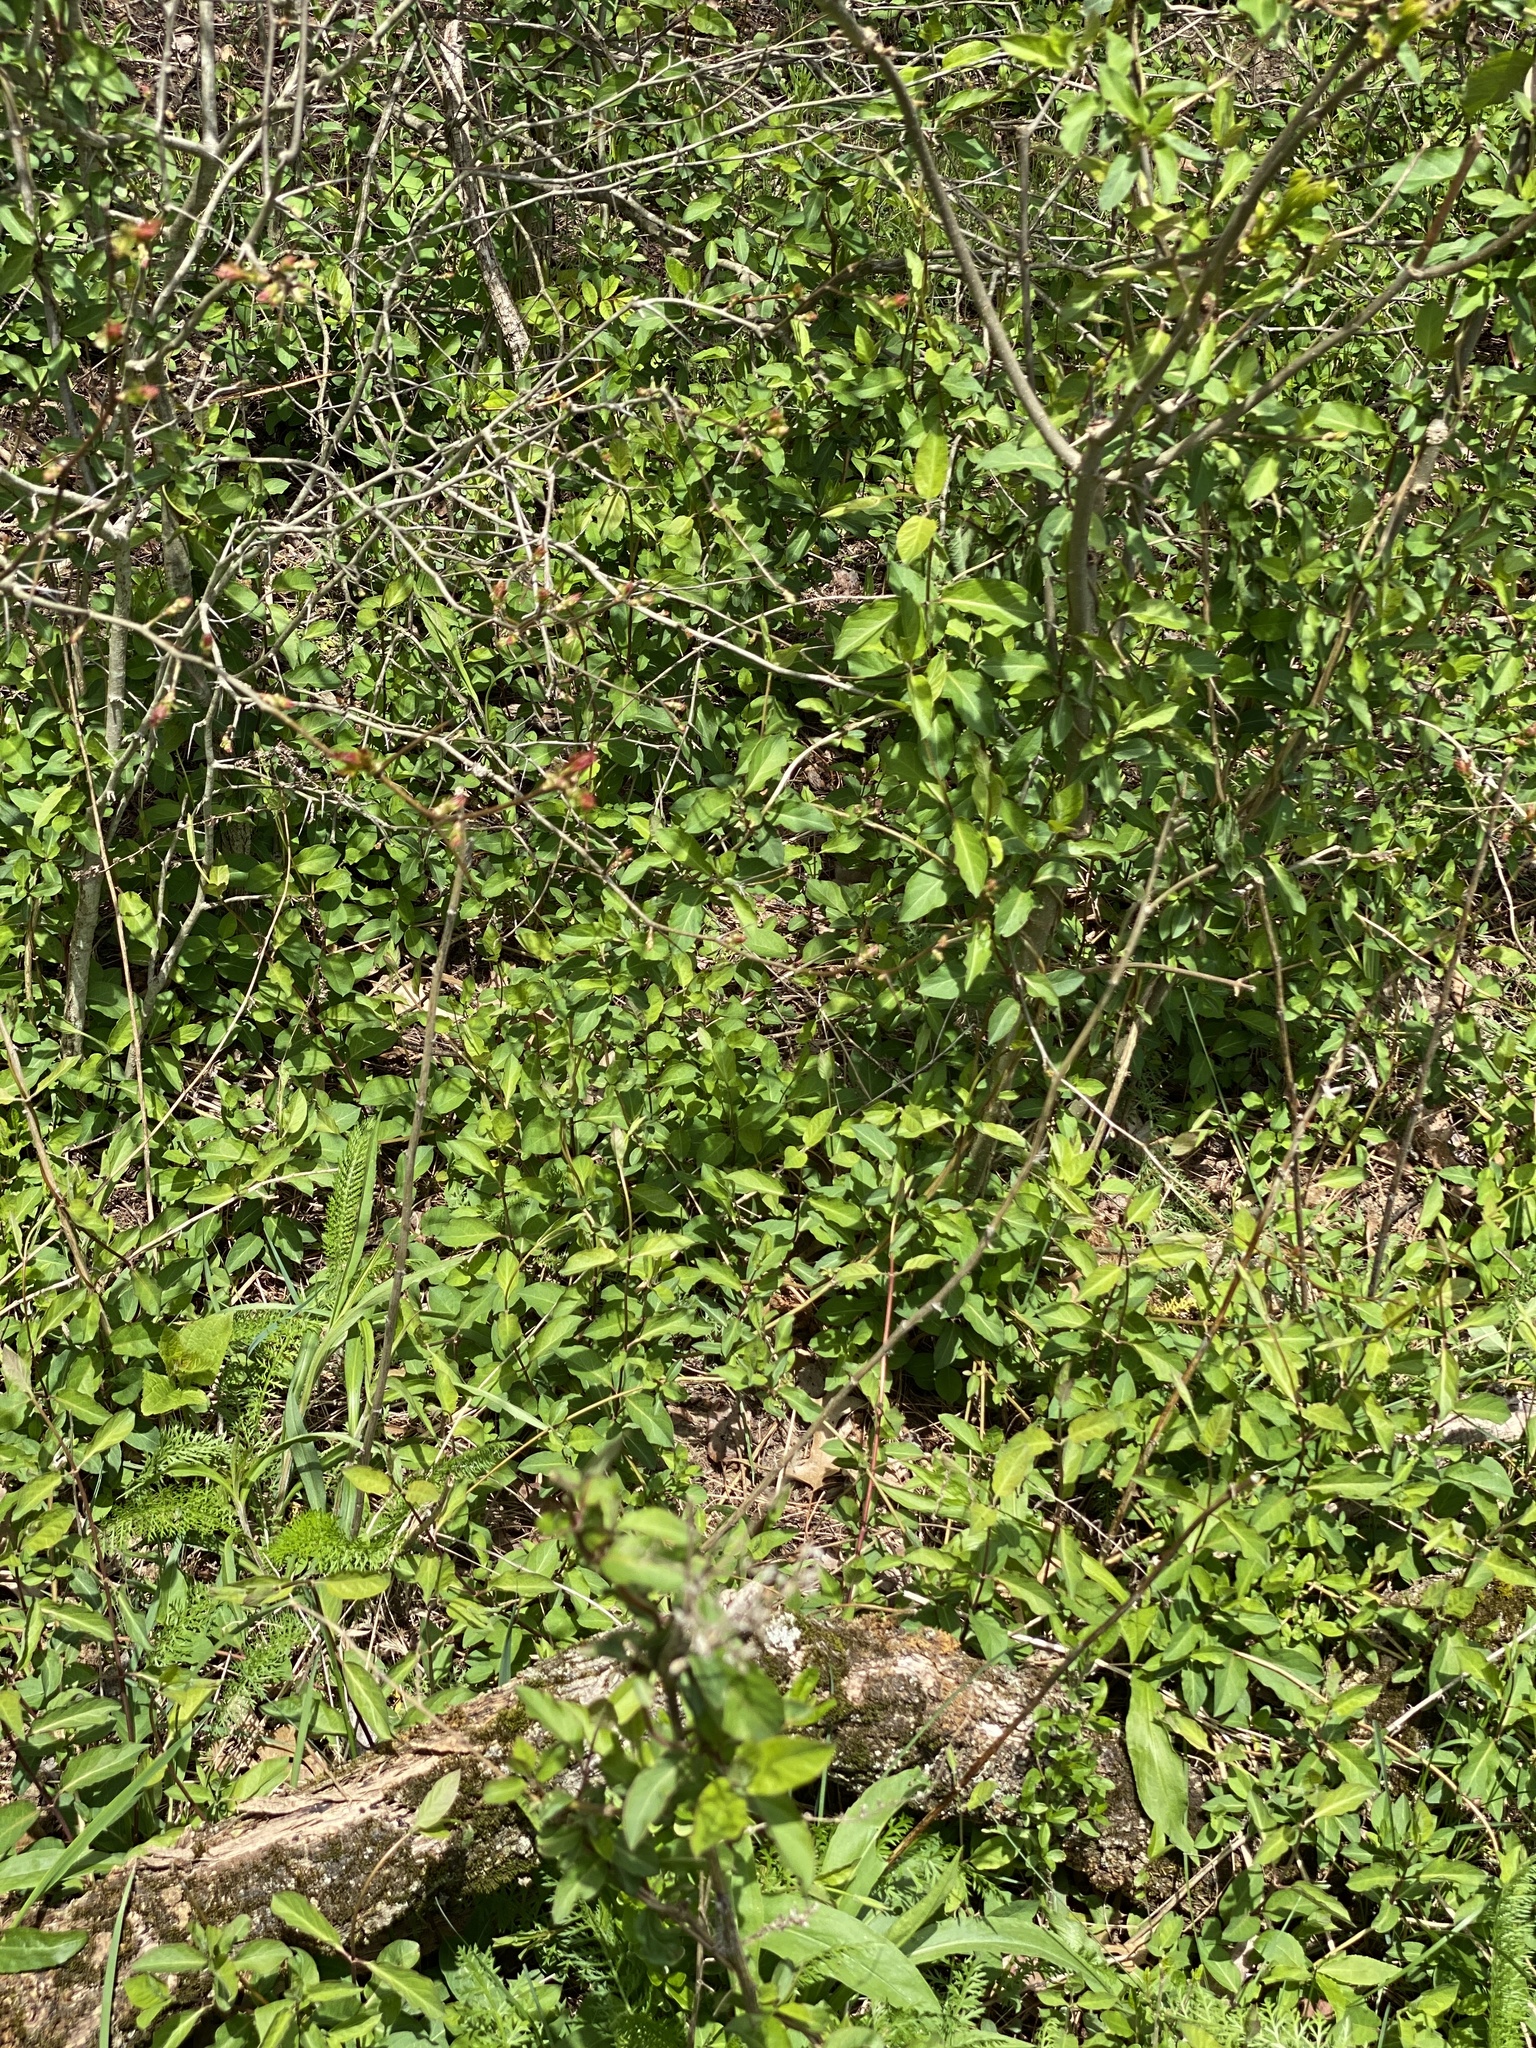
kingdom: Plantae
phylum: Tracheophyta
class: Magnoliopsida
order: Dipsacales
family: Caprifoliaceae
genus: Lonicera
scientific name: Lonicera japonica
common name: Japanese honeysuckle
